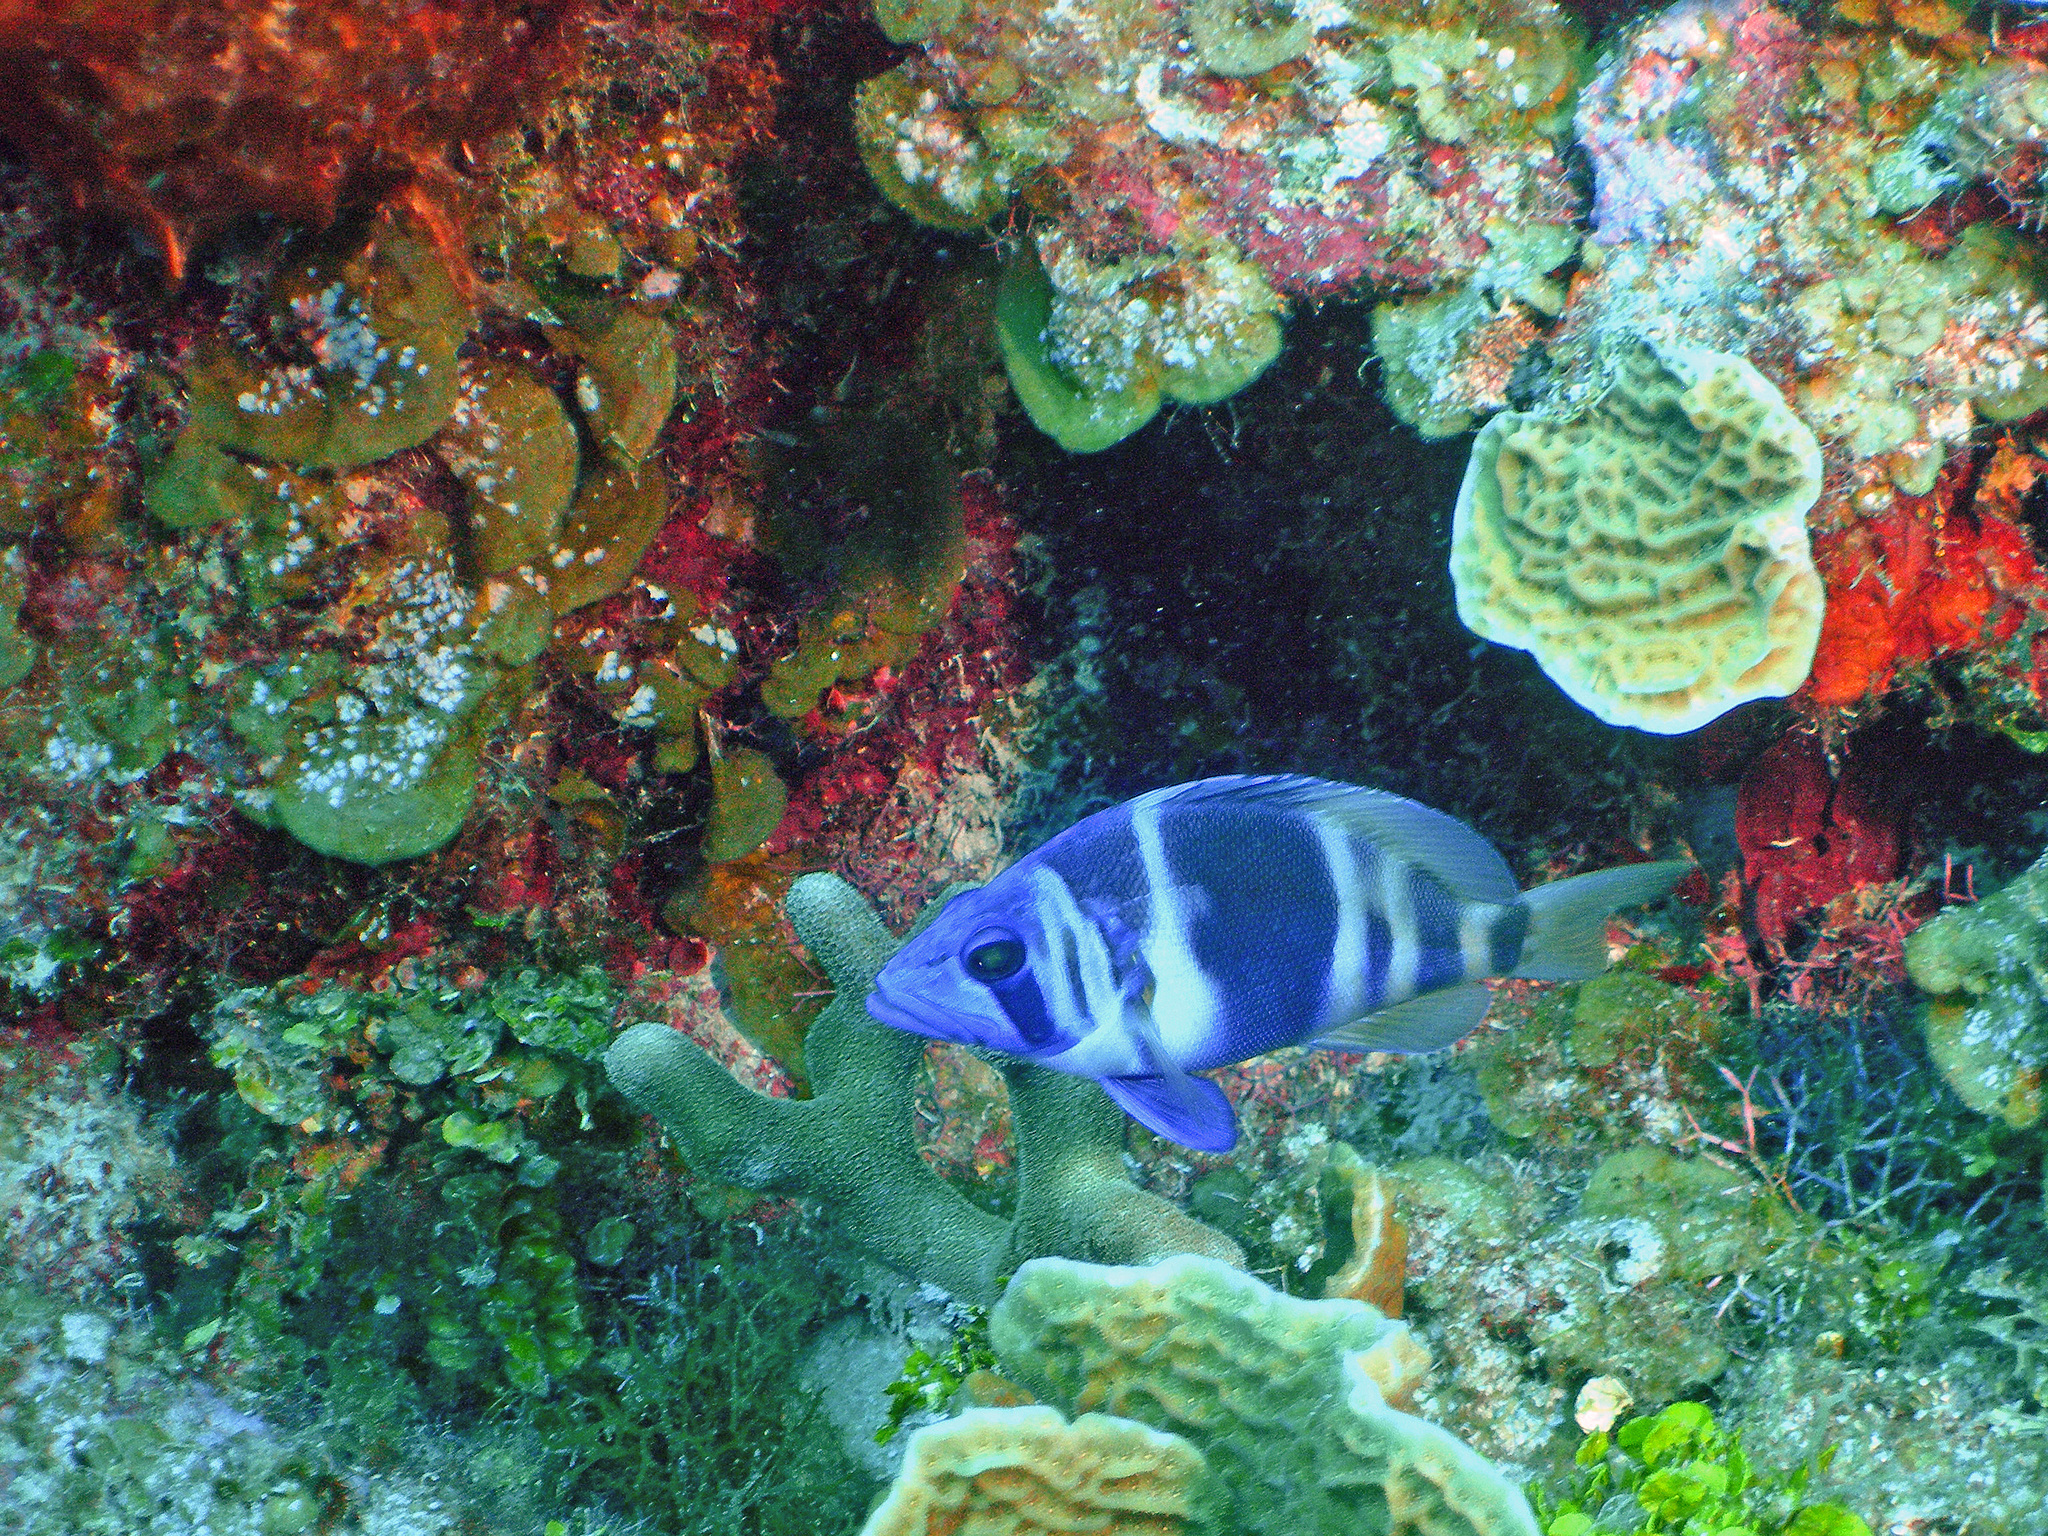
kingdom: Animalia
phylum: Chordata
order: Perciformes
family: Serranidae
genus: Hypoplectrus
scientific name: Hypoplectrus indigo
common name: Indigo hamlet
